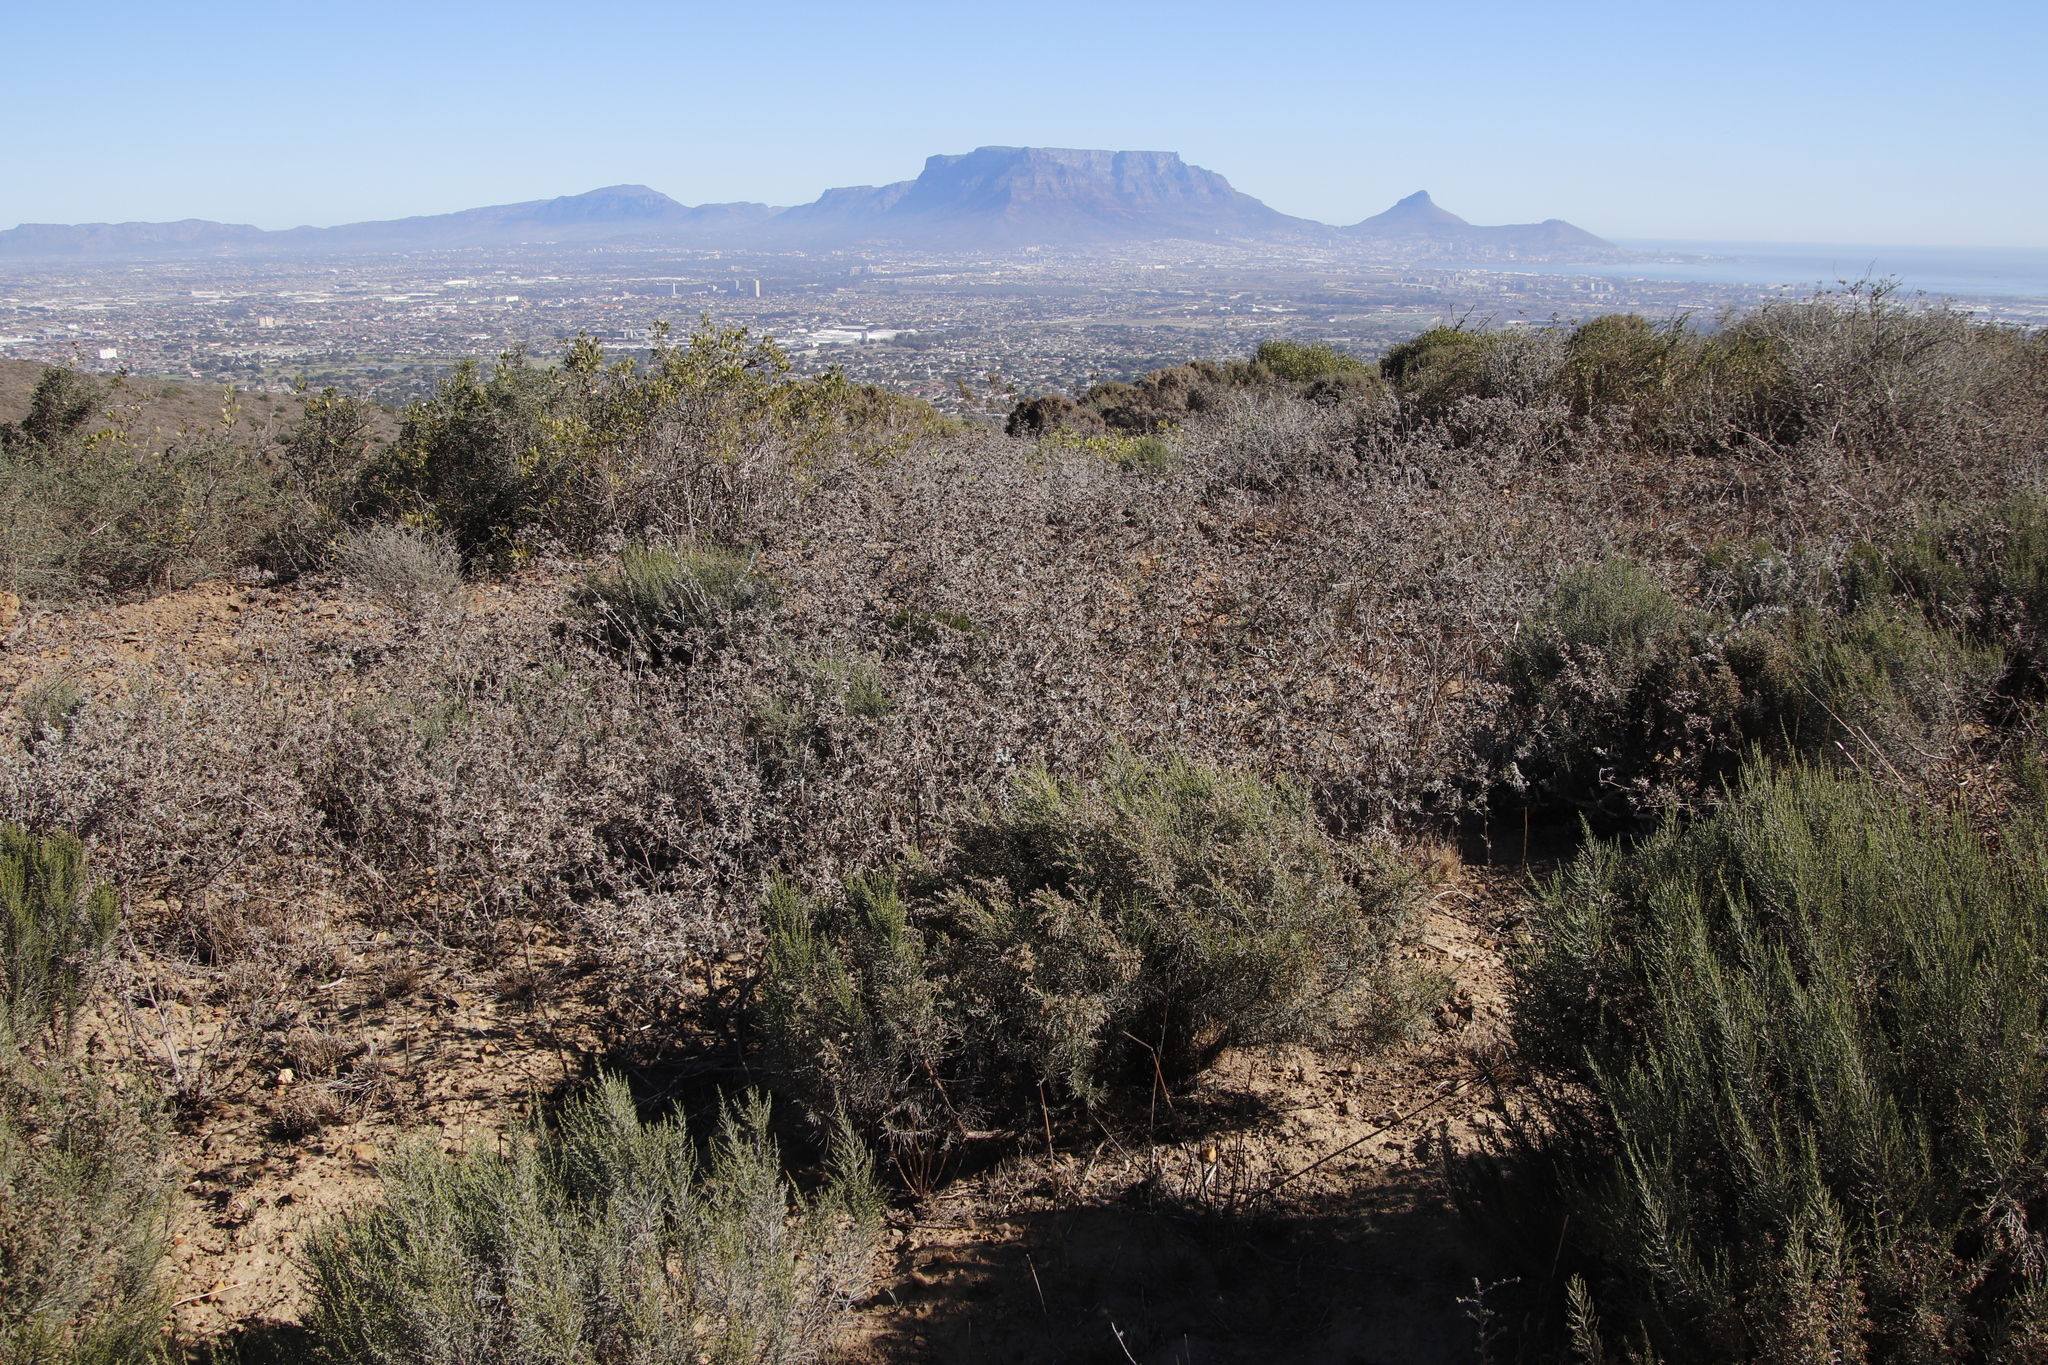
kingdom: Plantae
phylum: Tracheophyta
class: Magnoliopsida
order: Asterales
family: Asteraceae
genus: Berkheya
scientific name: Berkheya rigida
